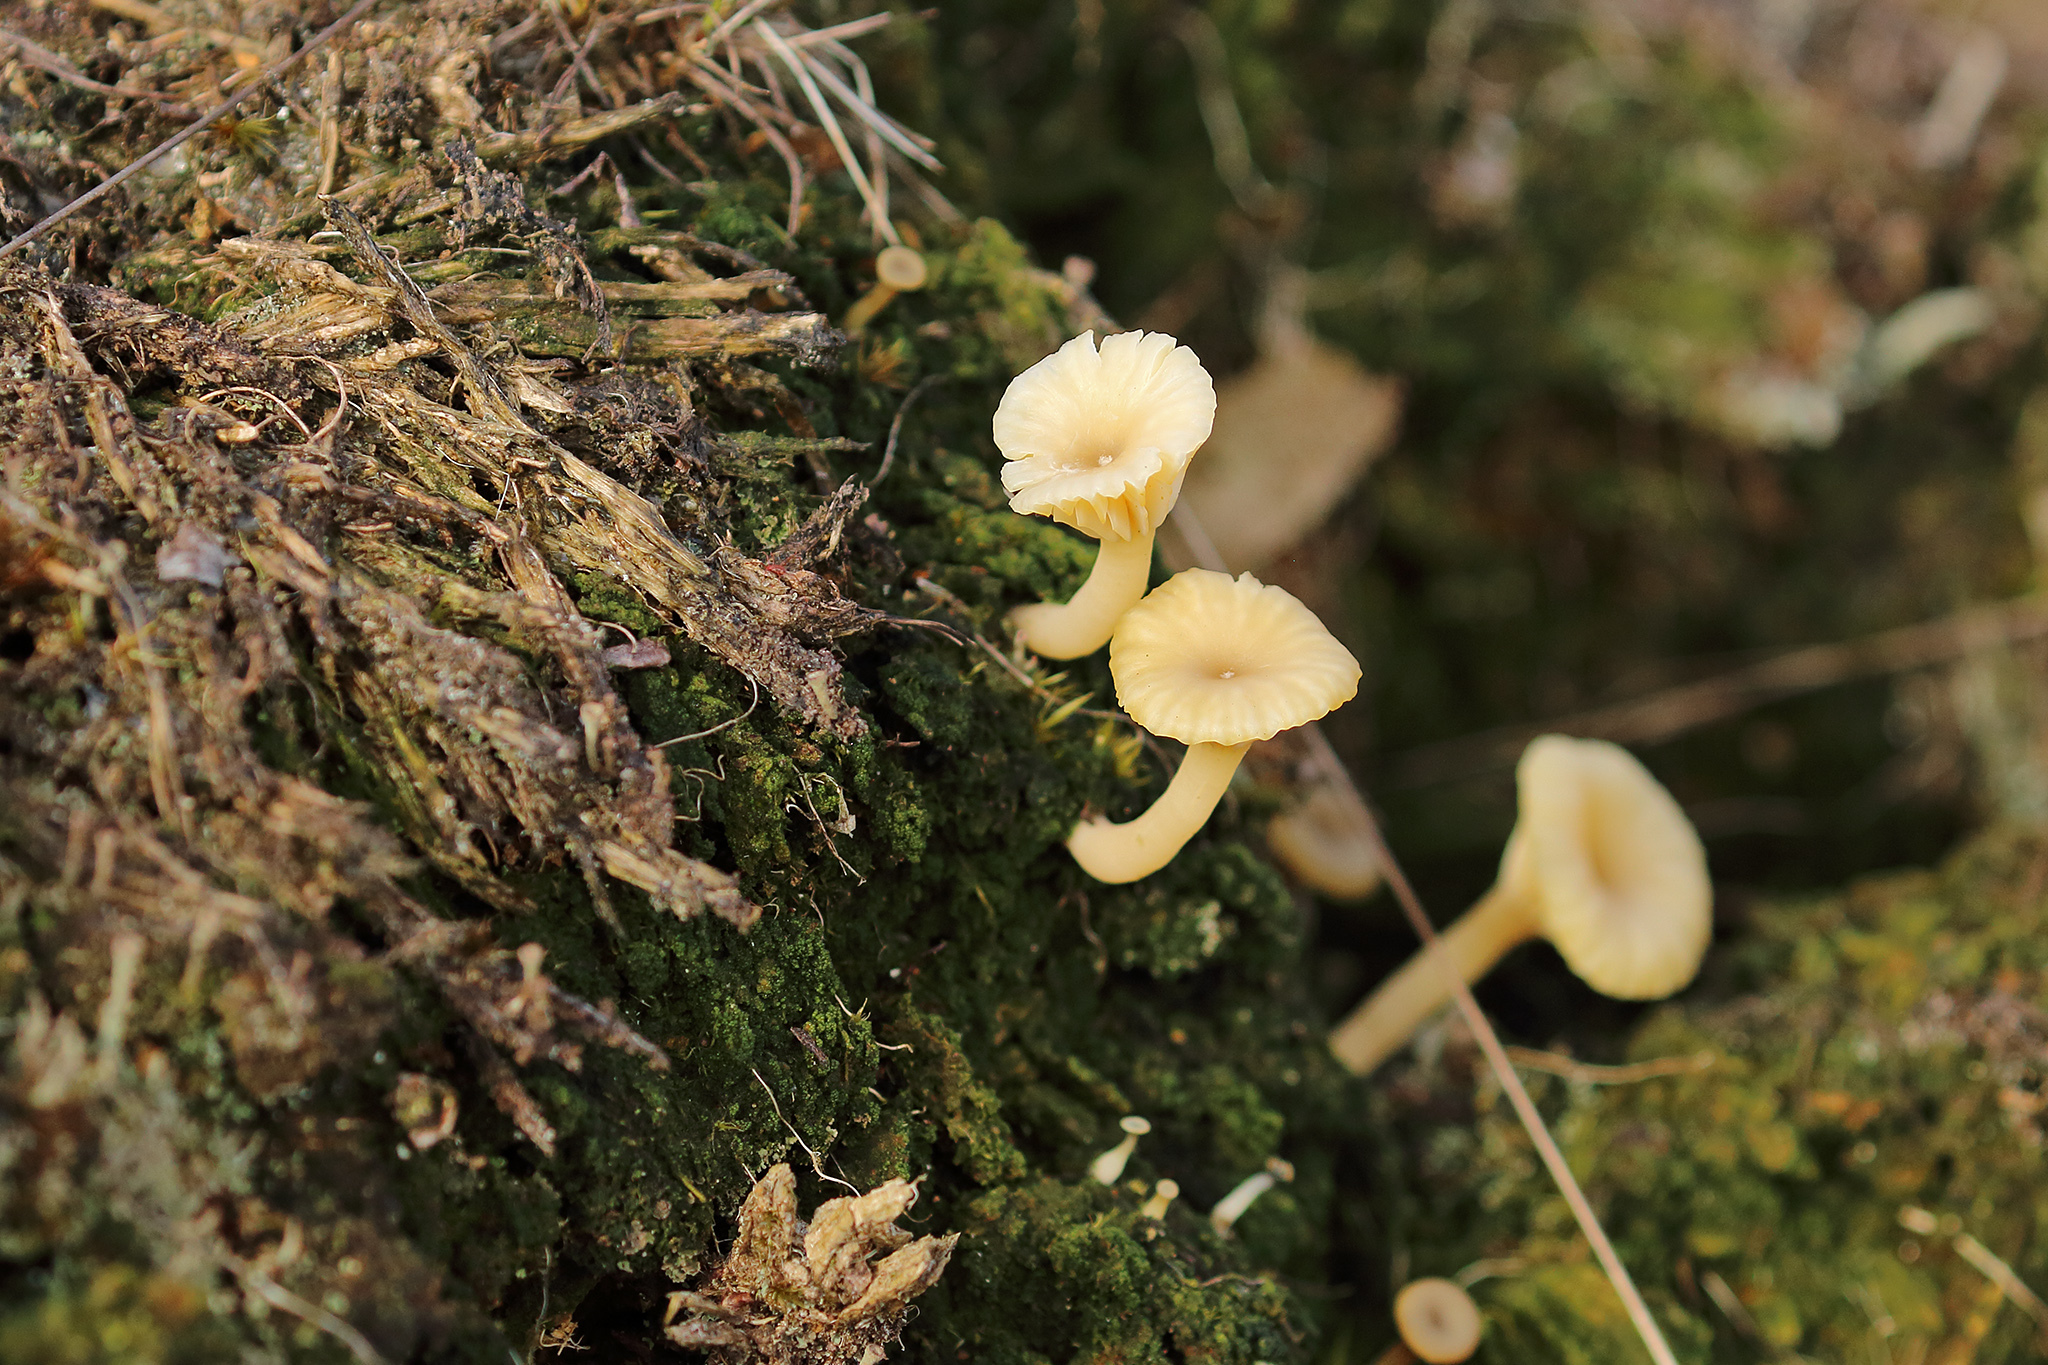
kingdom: Fungi
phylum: Basidiomycota
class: Agaricomycetes
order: Agaricales
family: Hygrophoraceae
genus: Lichenomphalia
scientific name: Lichenomphalia
